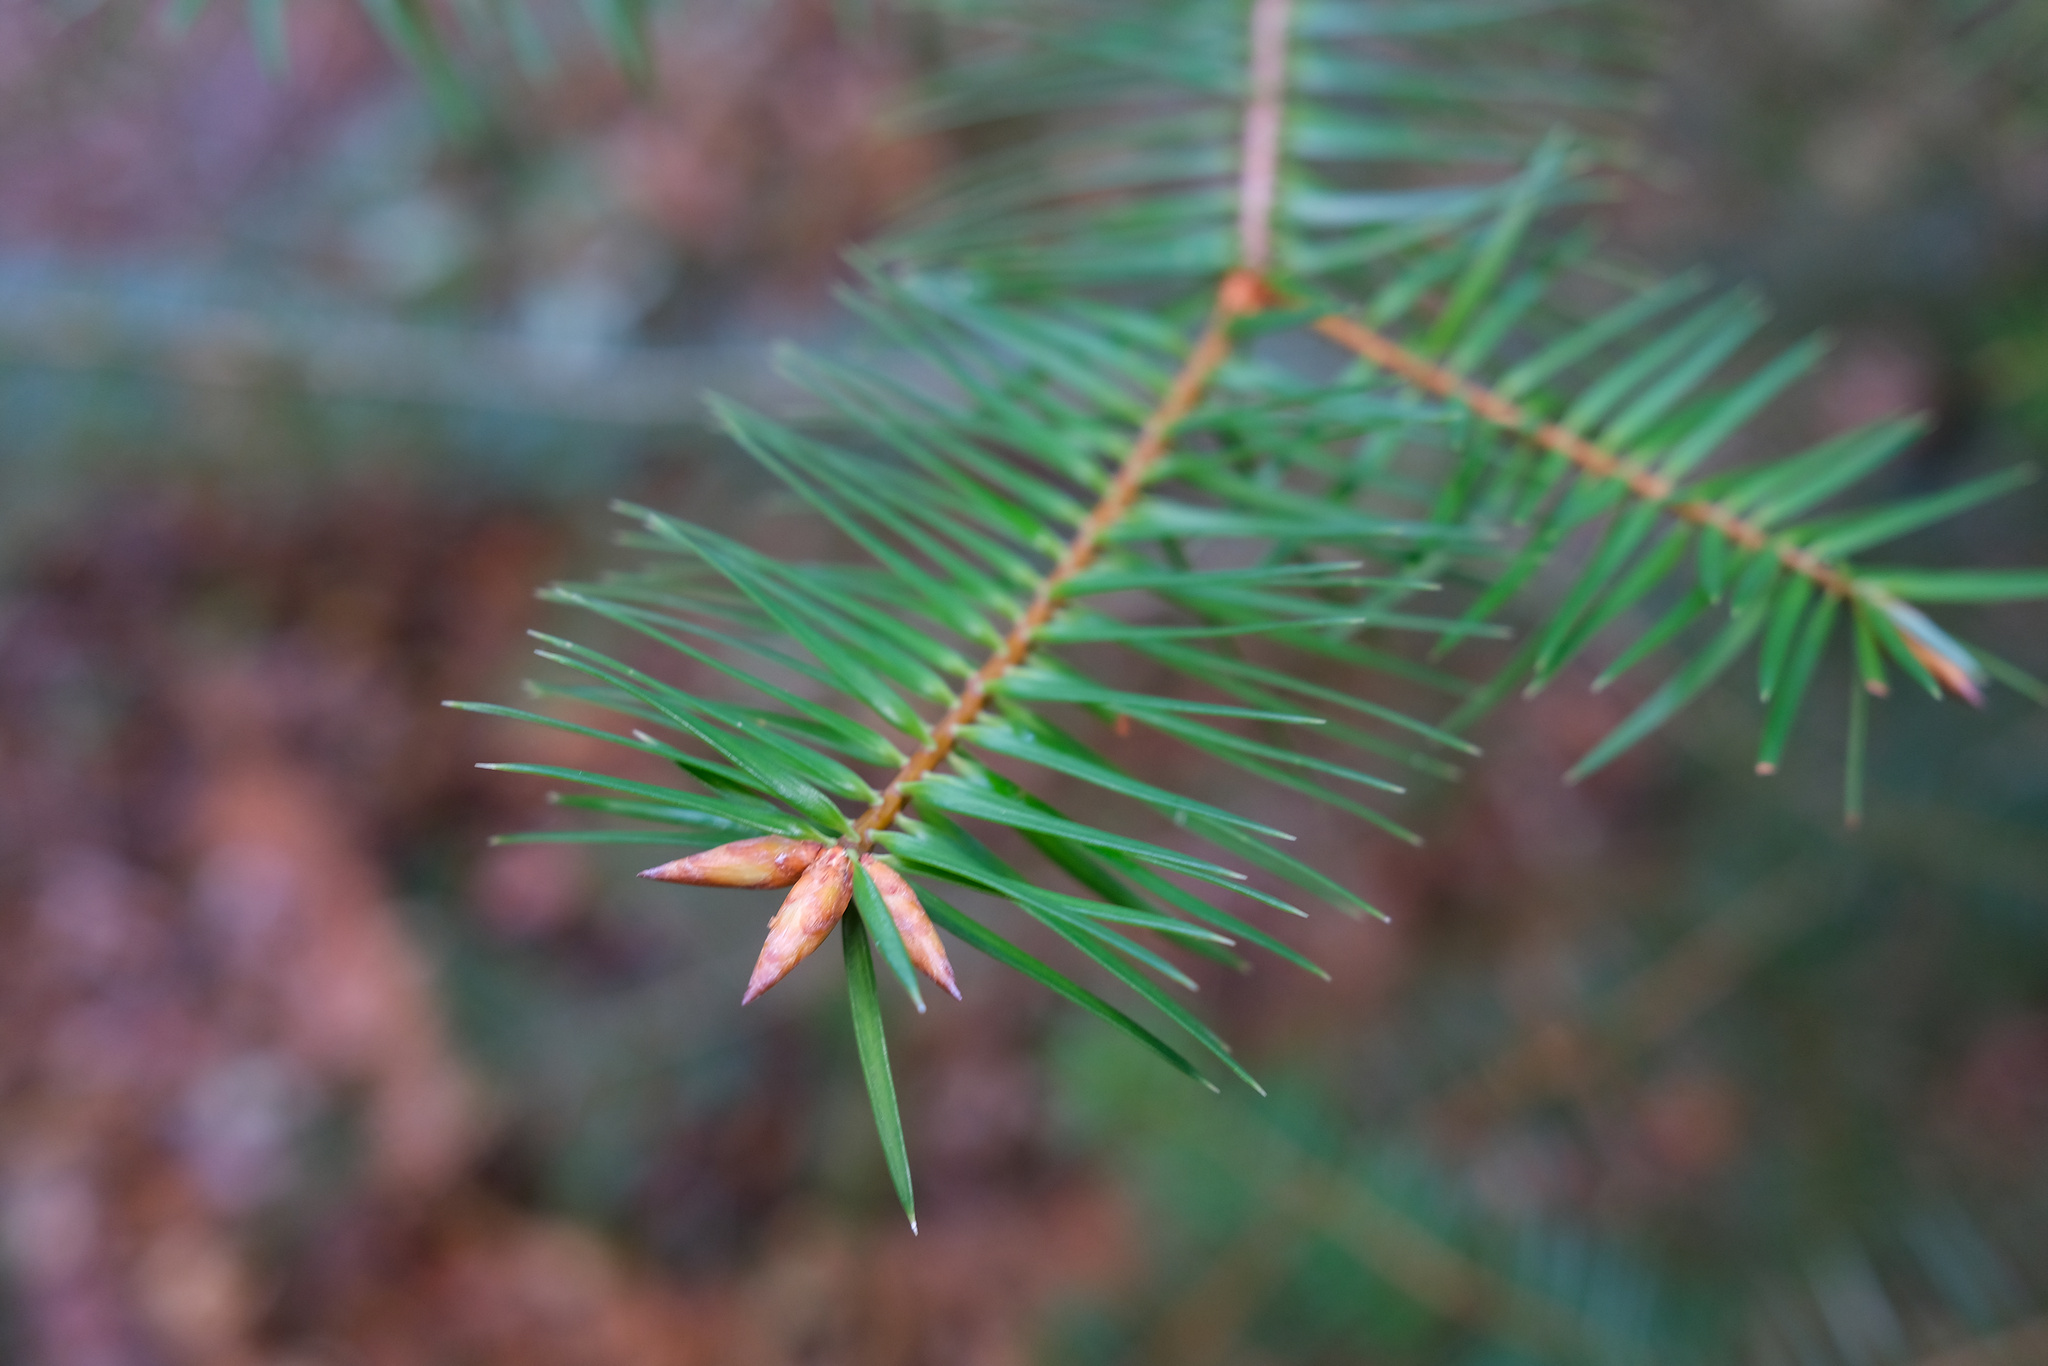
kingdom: Plantae
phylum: Tracheophyta
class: Pinopsida
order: Pinales
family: Pinaceae
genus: Abies
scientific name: Abies bracteata
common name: Bristlecone fir
